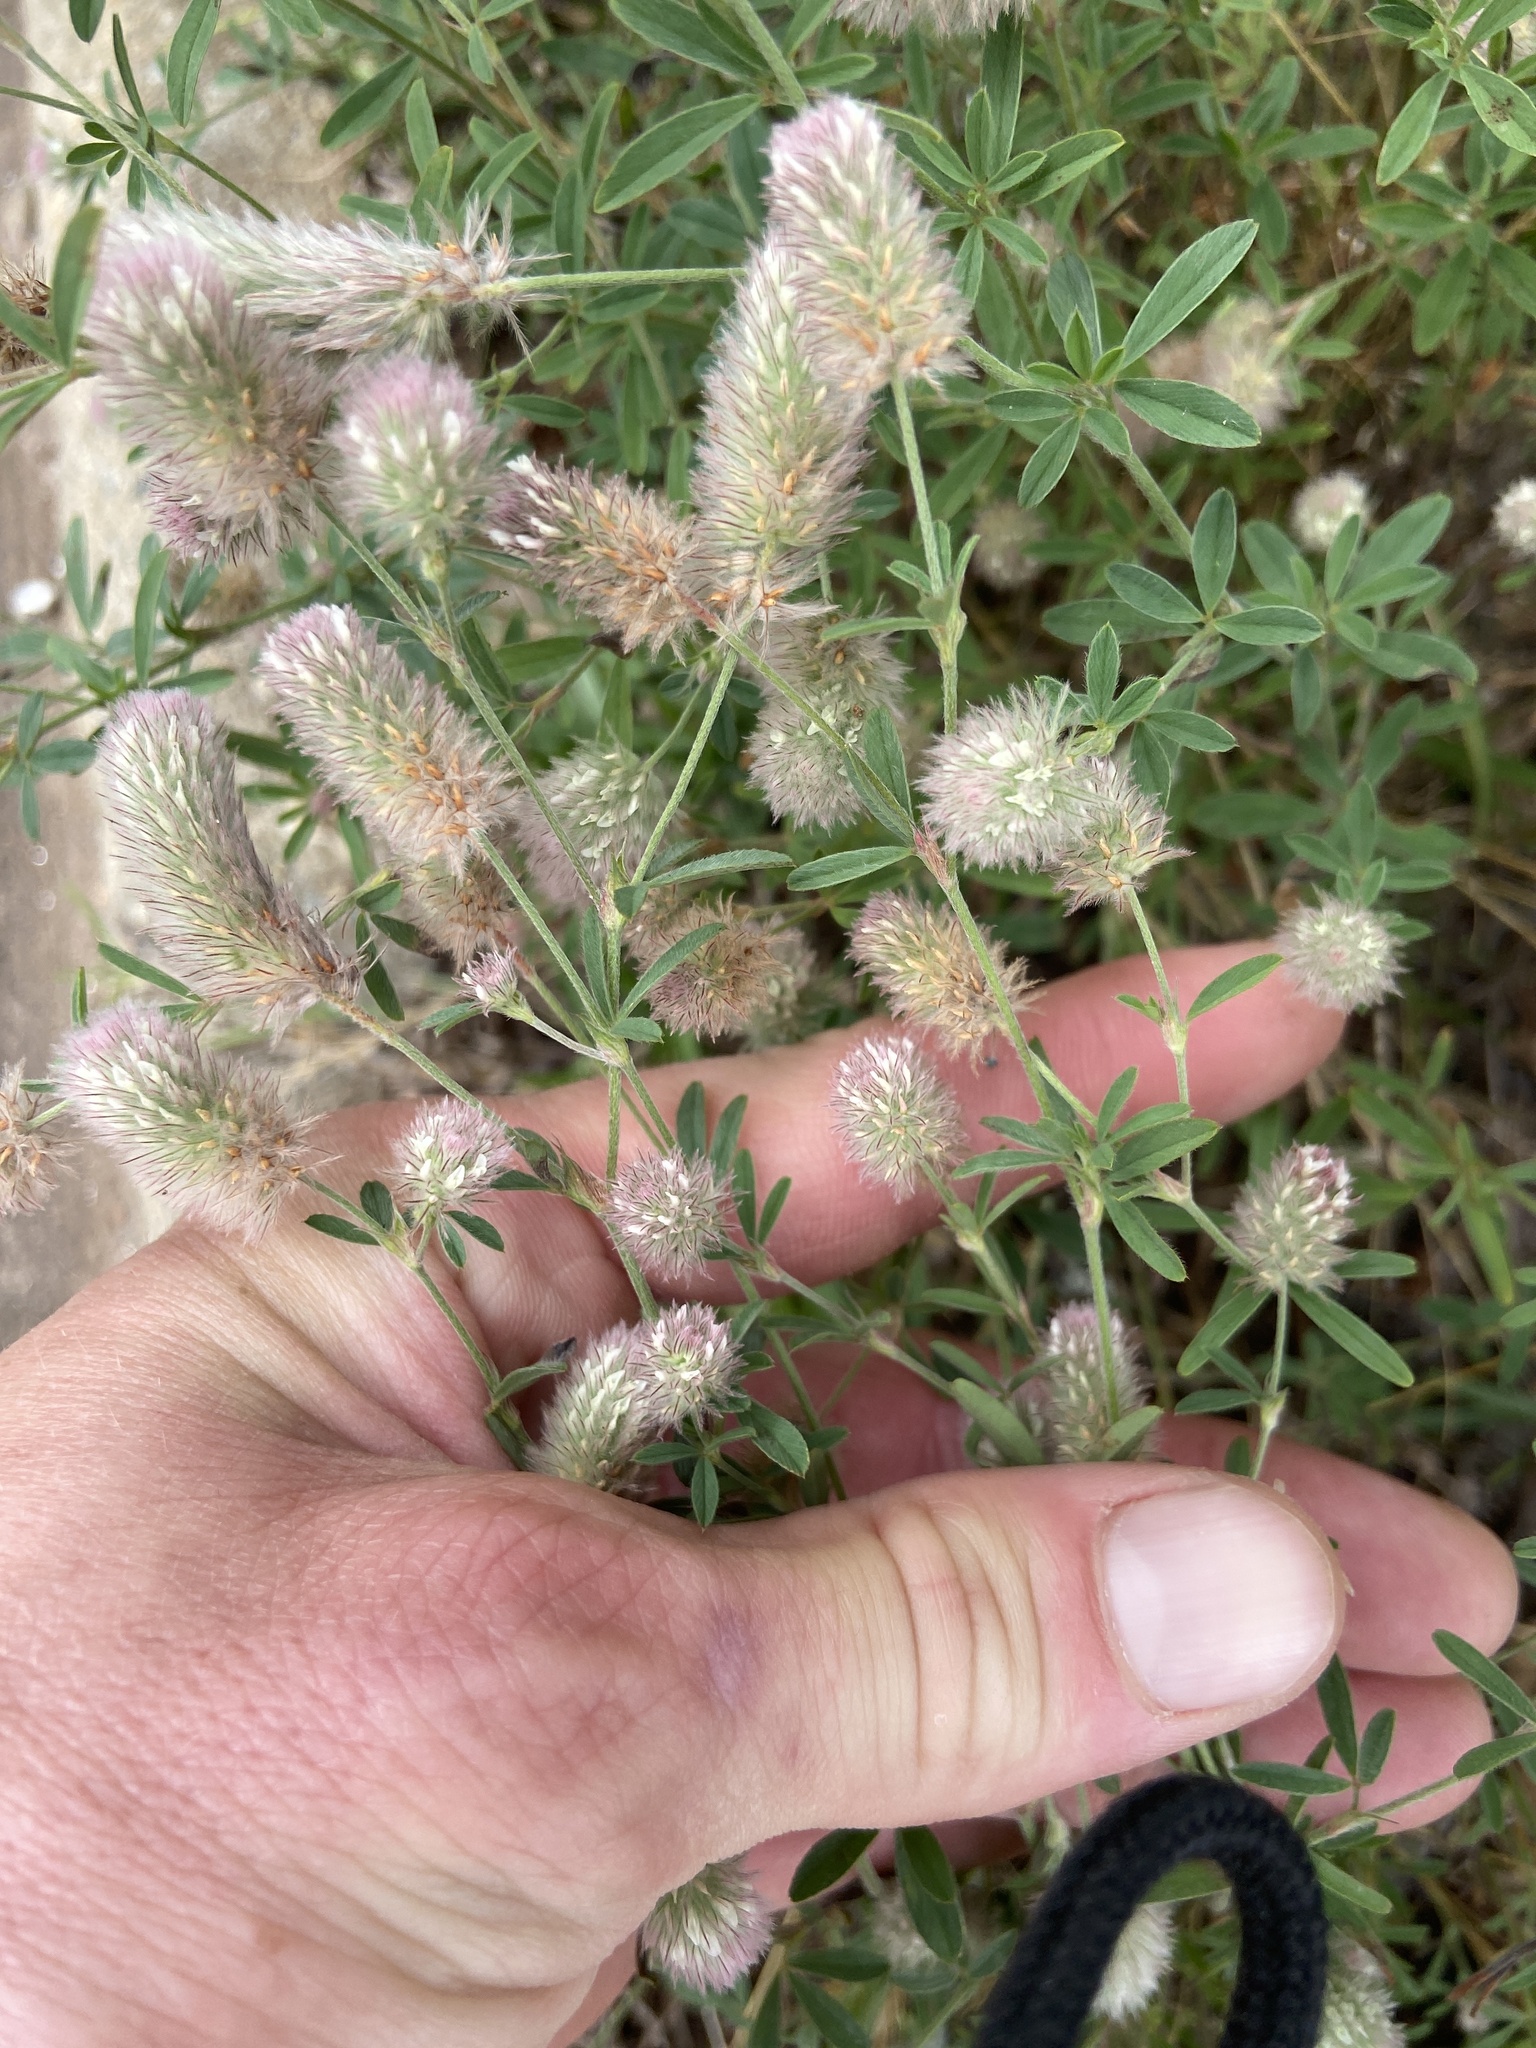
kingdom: Plantae
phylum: Tracheophyta
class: Magnoliopsida
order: Fabales
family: Fabaceae
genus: Trifolium
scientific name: Trifolium arvense
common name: Hare's-foot clover
